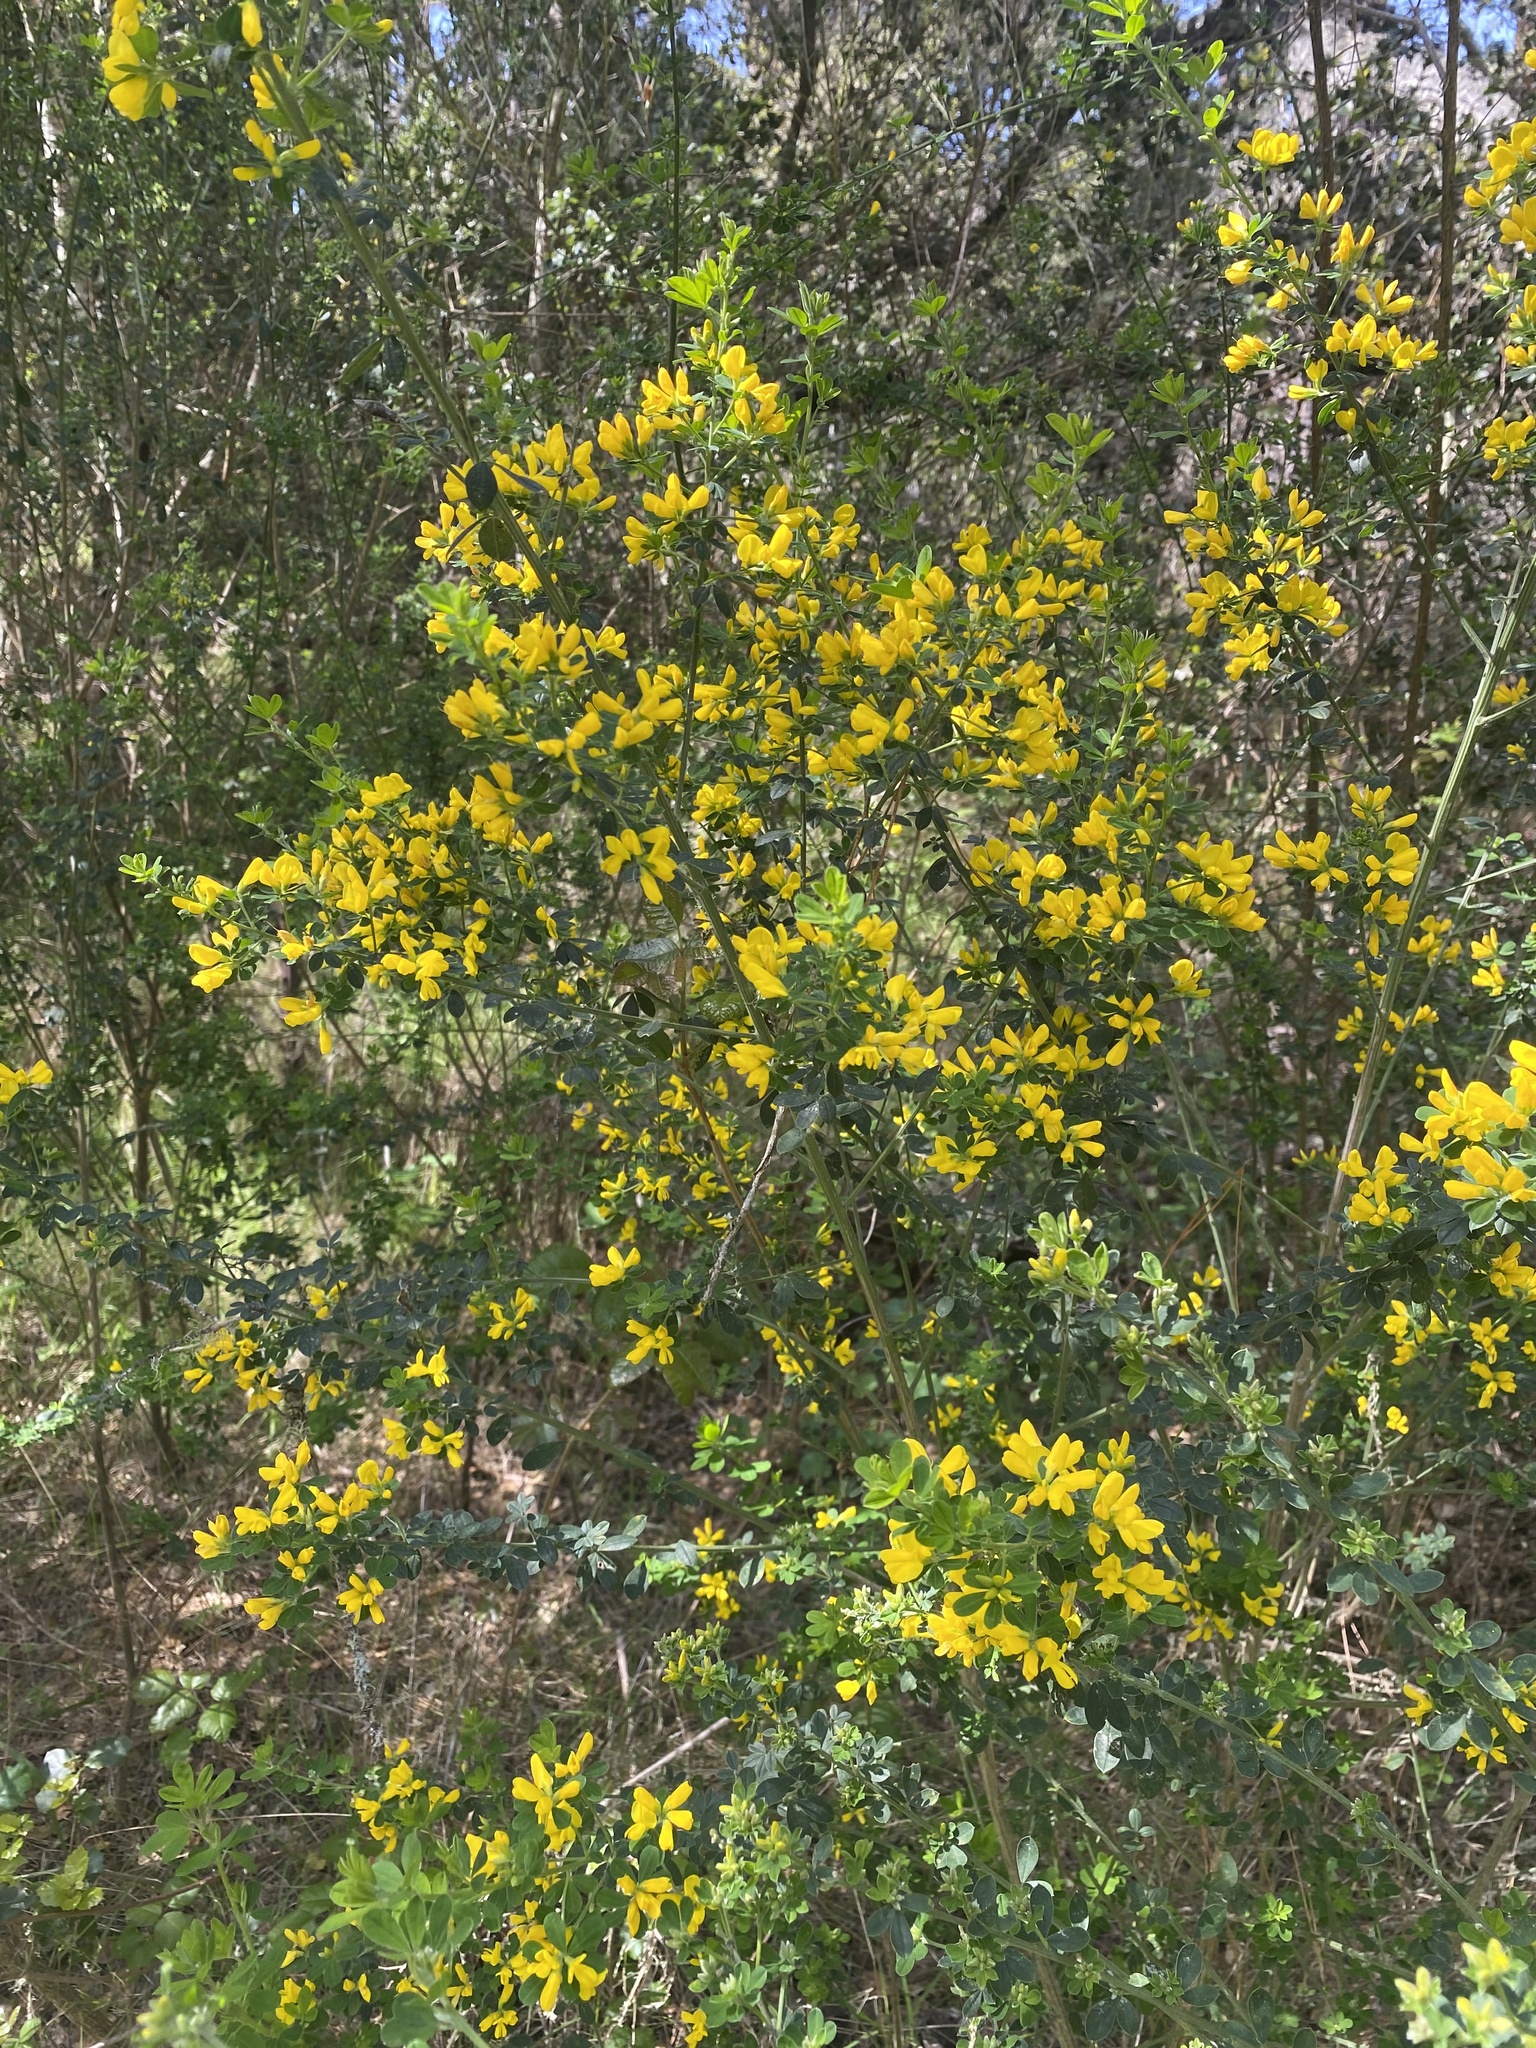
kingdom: Plantae
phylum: Tracheophyta
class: Magnoliopsida
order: Fabales
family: Fabaceae
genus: Genista
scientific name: Genista monspessulana
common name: Montpellier broom
